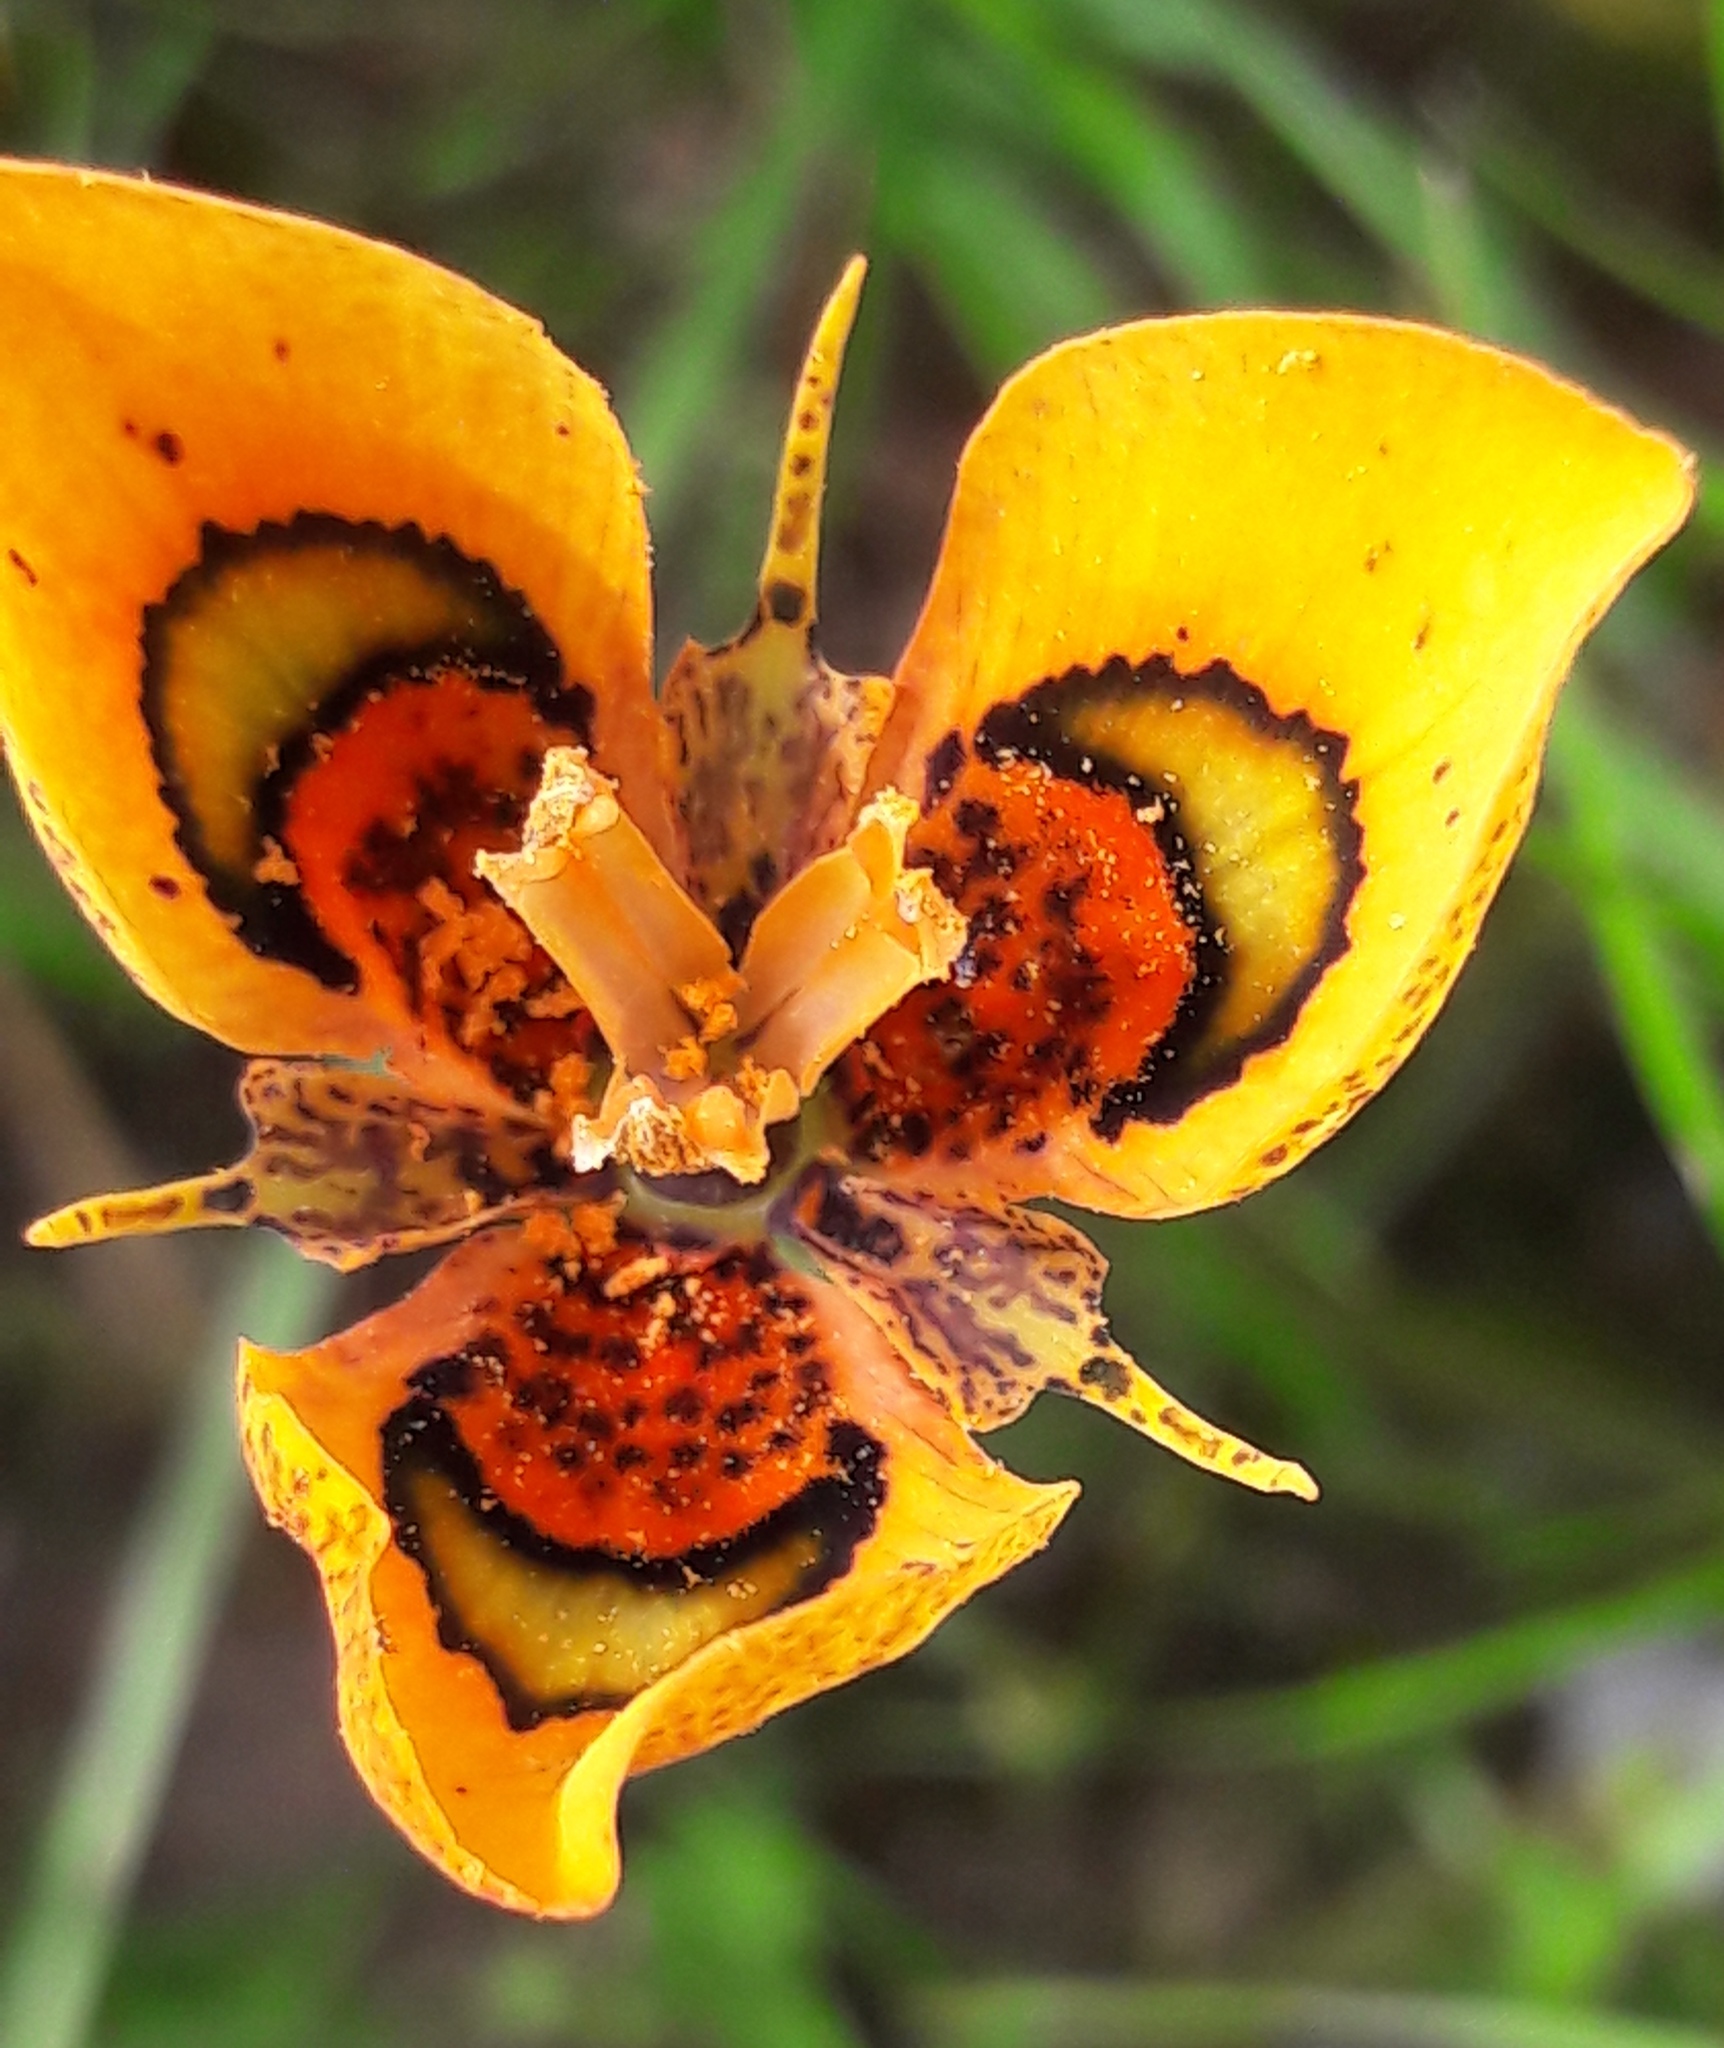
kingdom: Plantae
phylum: Tracheophyta
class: Liliopsida
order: Asparagales
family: Iridaceae
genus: Moraea
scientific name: Moraea tulbaghensis
